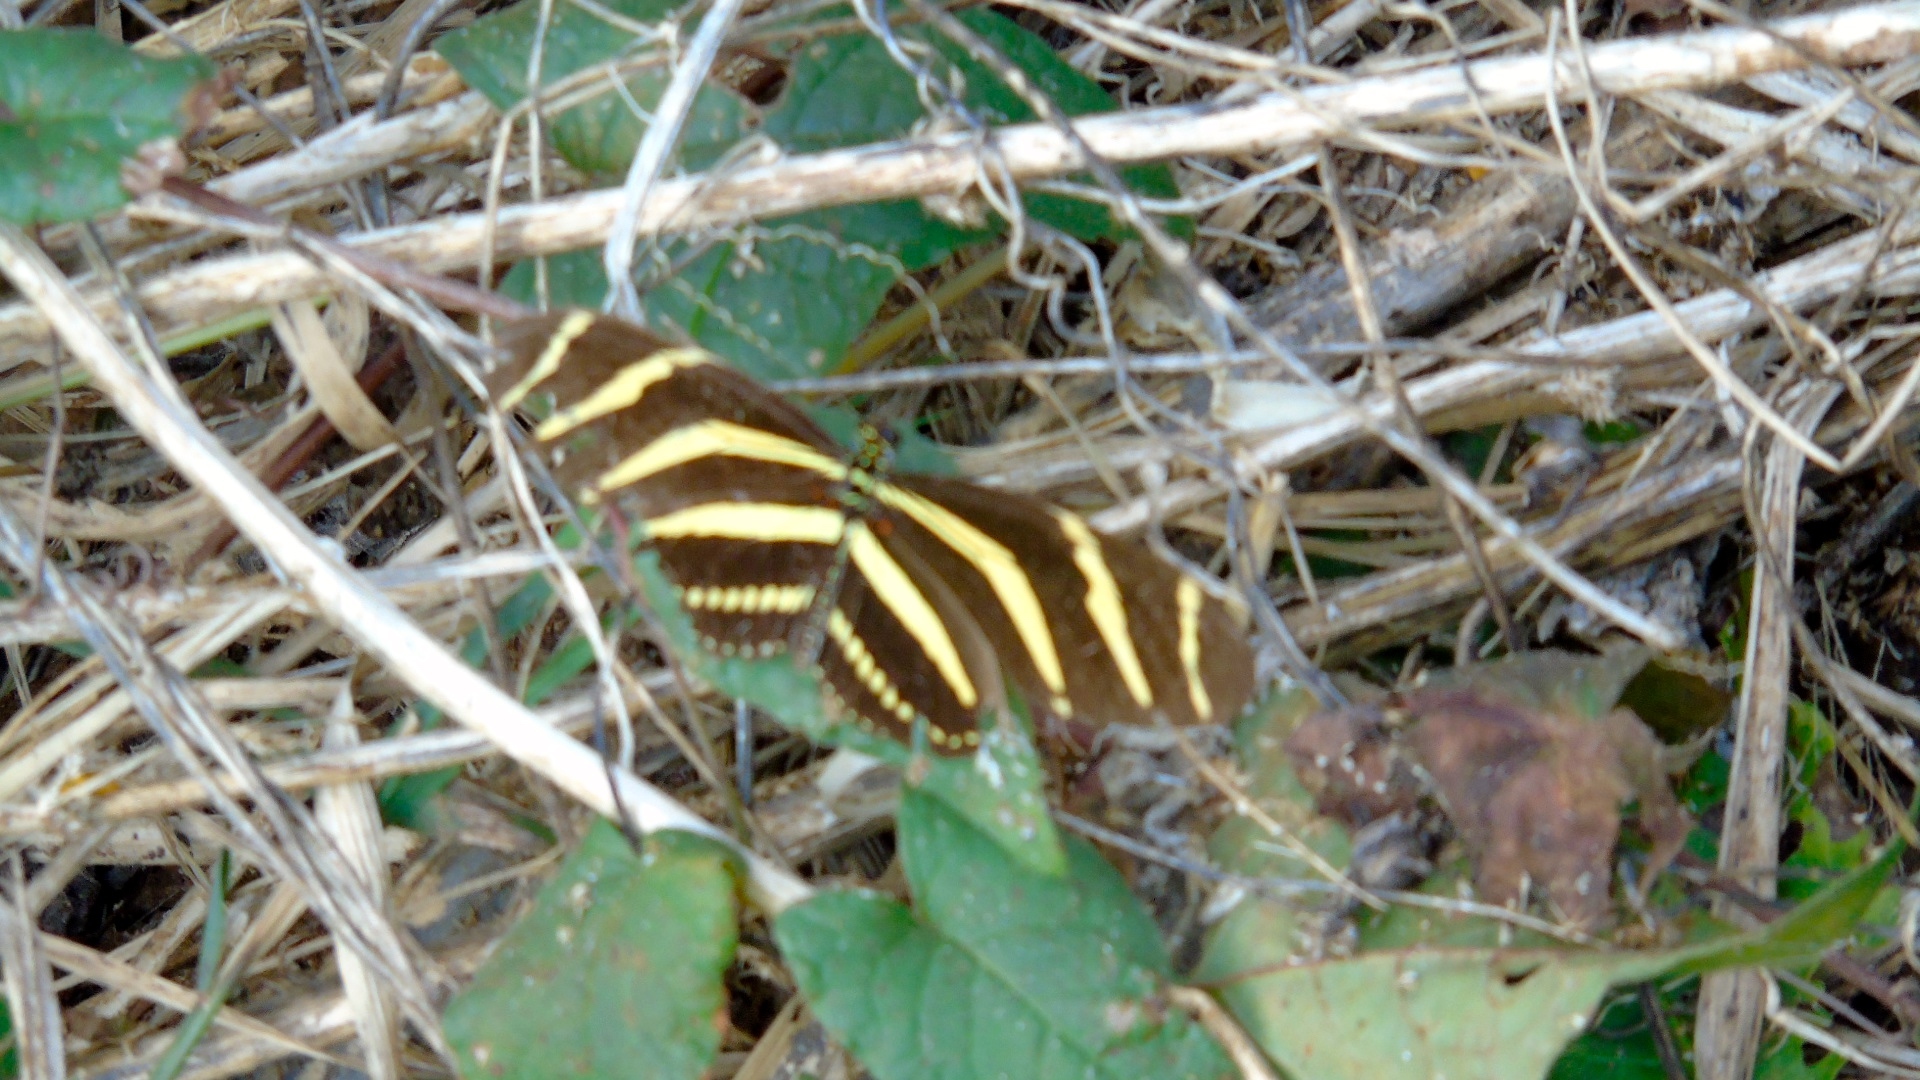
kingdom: Animalia
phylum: Arthropoda
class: Insecta
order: Lepidoptera
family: Nymphalidae
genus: Heliconius
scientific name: Heliconius charithonia
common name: Zebra long wing
